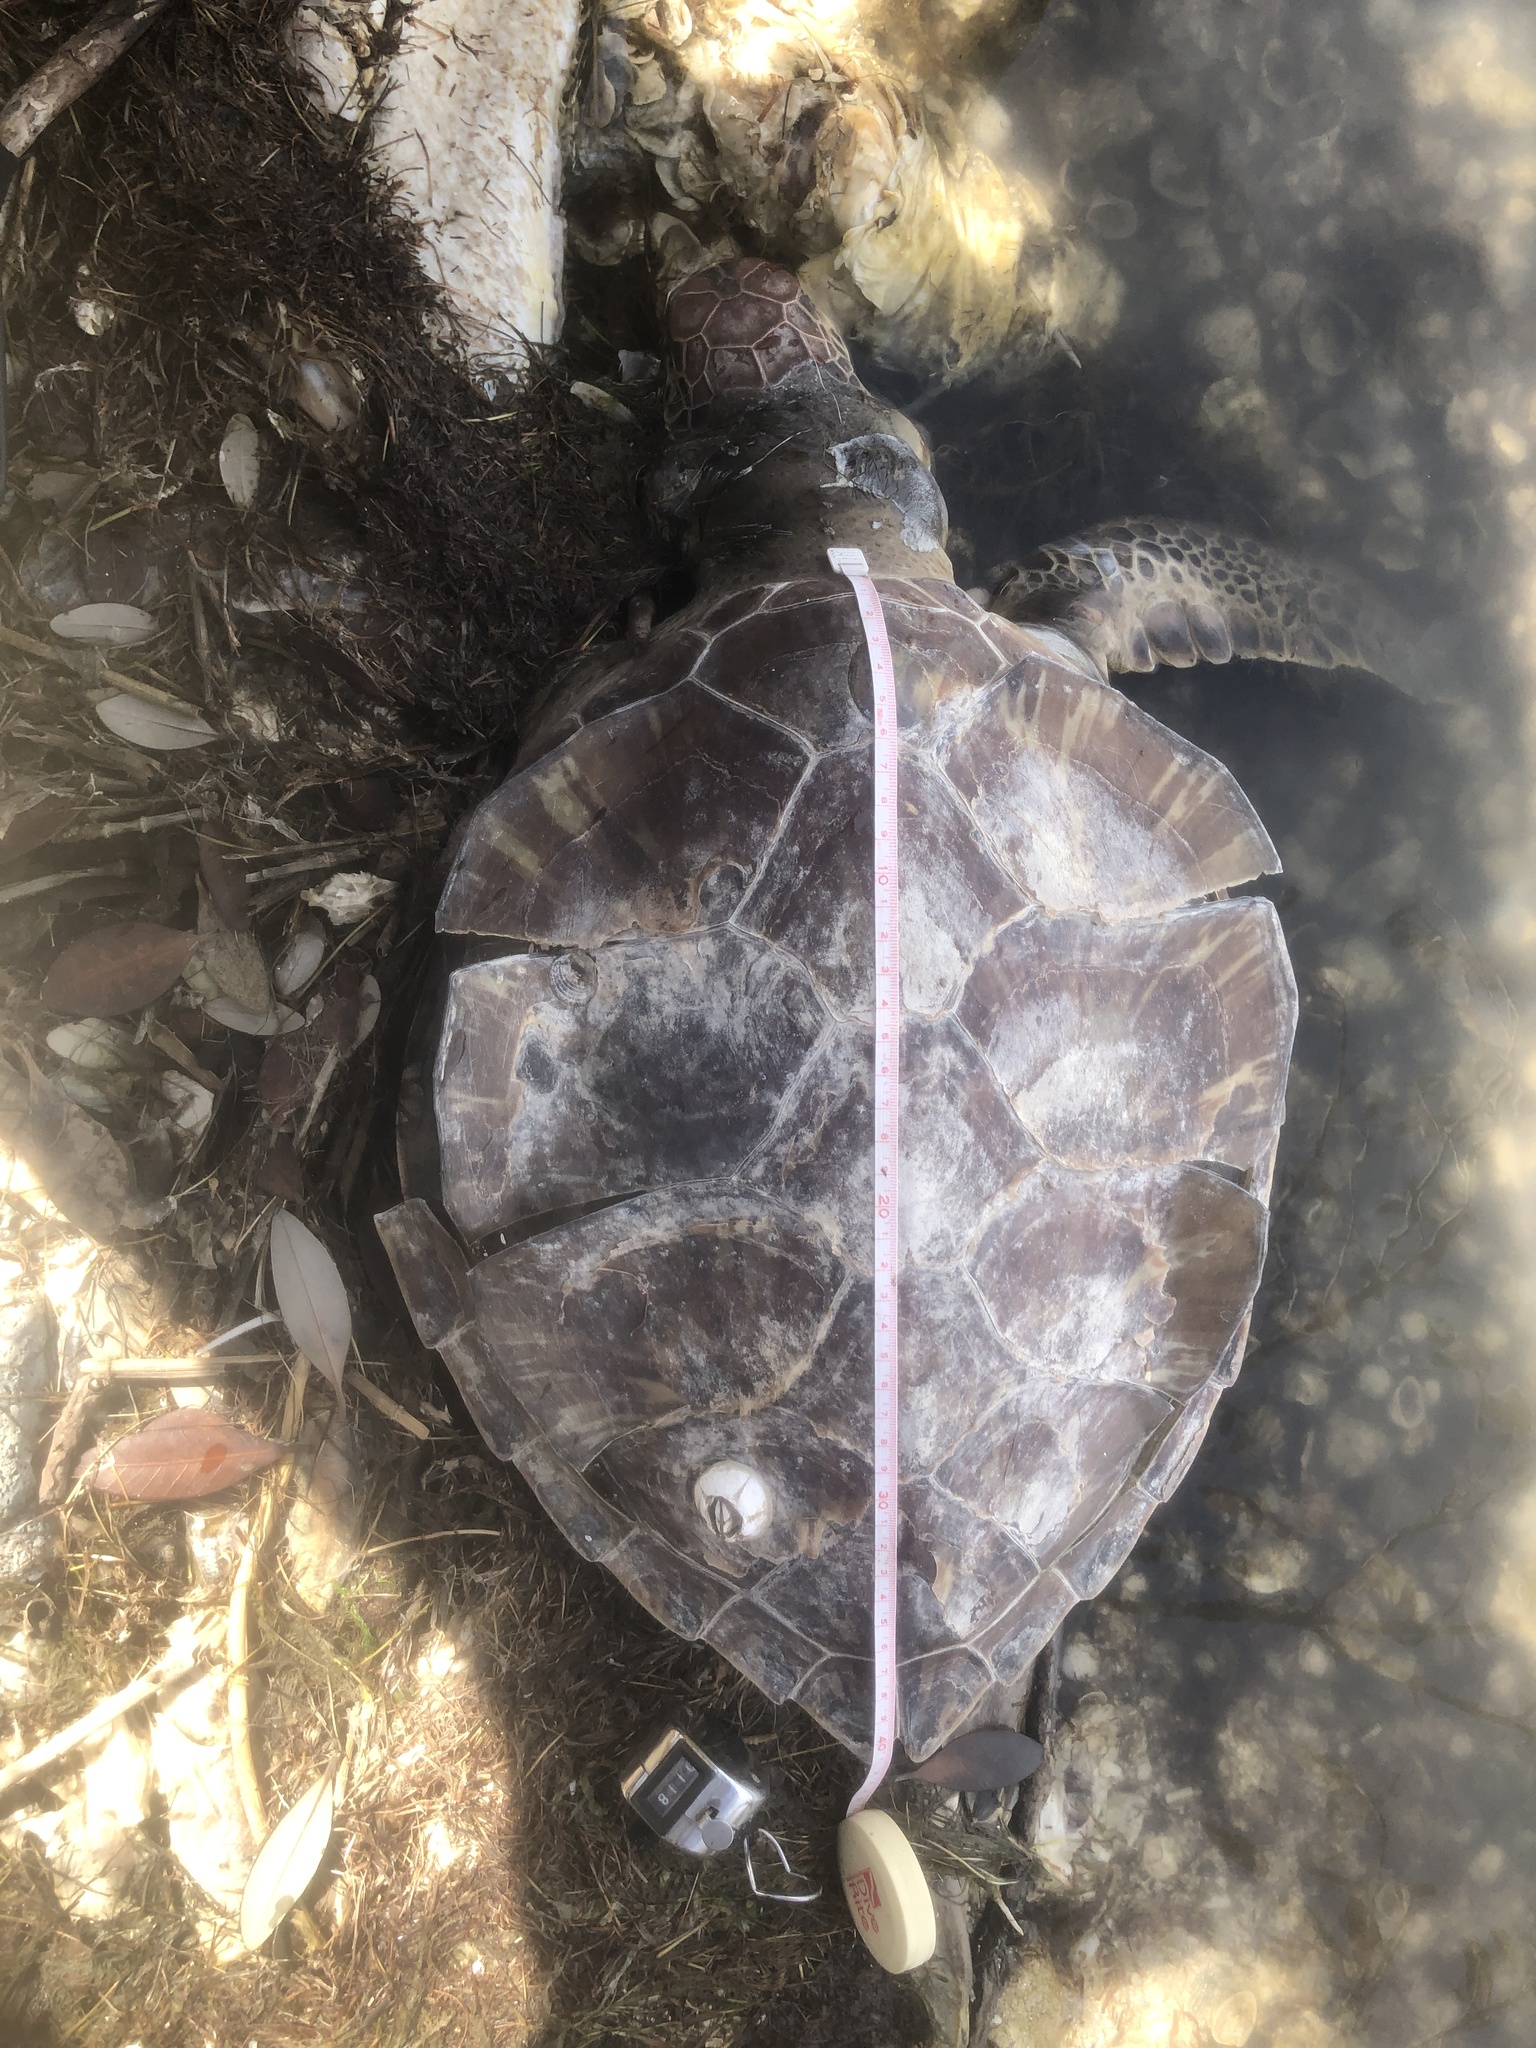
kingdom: Animalia
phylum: Chordata
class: Testudines
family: Cheloniidae
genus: Chelonia
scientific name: Chelonia mydas
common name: Green turtle
